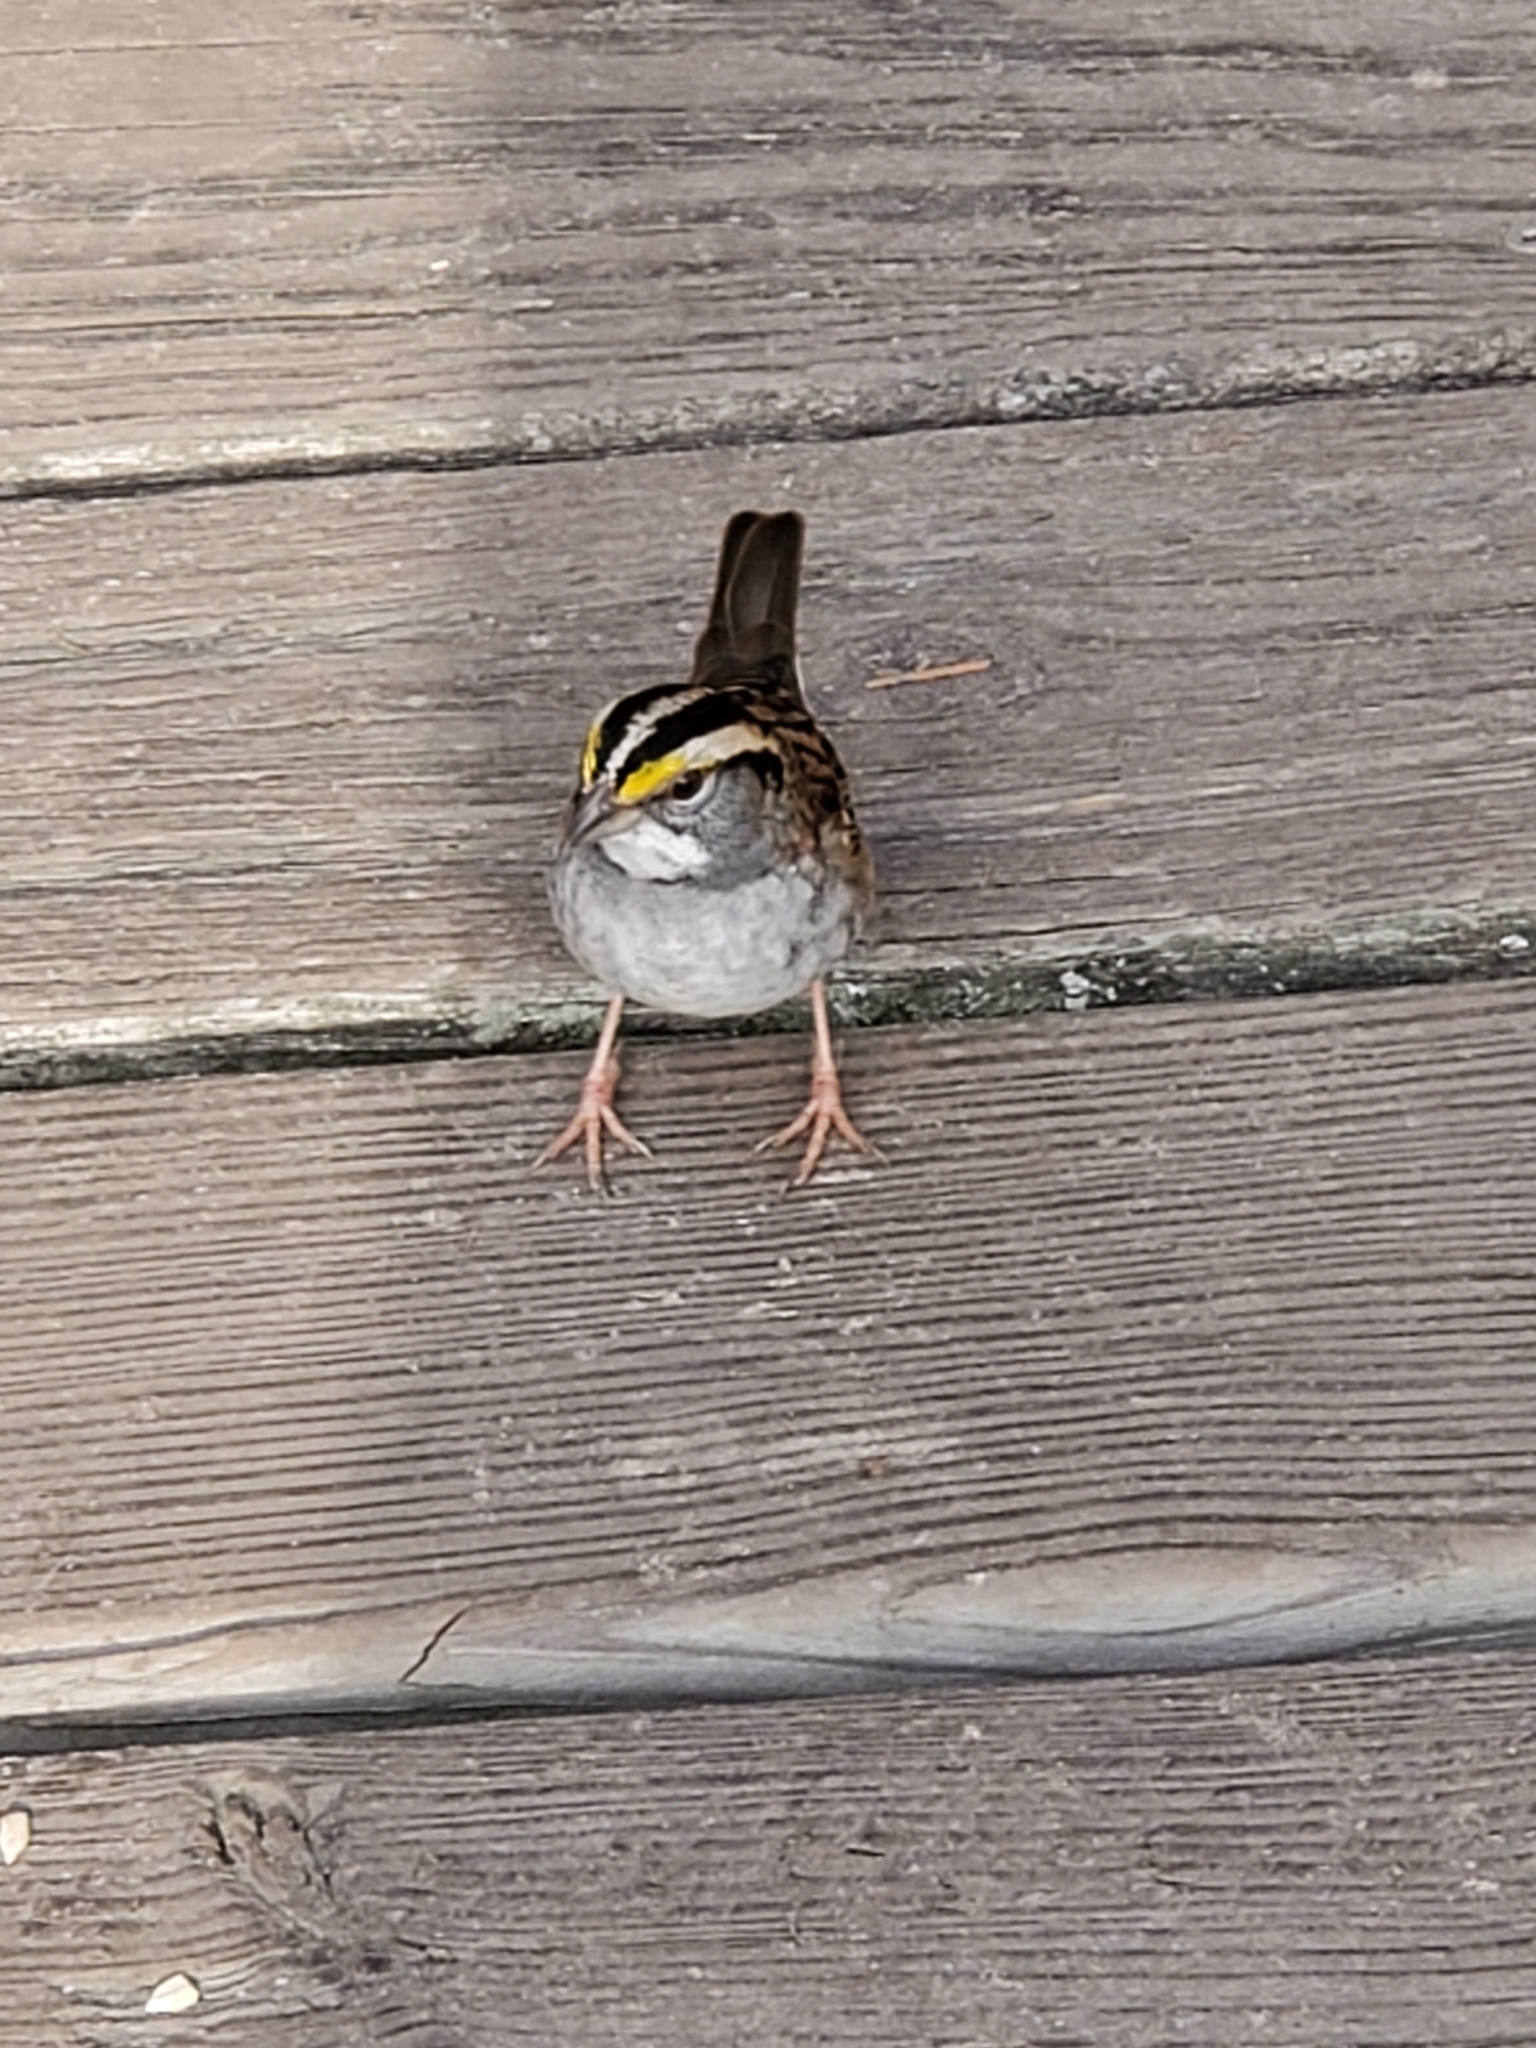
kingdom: Animalia
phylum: Chordata
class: Aves
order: Passeriformes
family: Passerellidae
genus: Zonotrichia
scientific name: Zonotrichia albicollis
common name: White-throated sparrow
